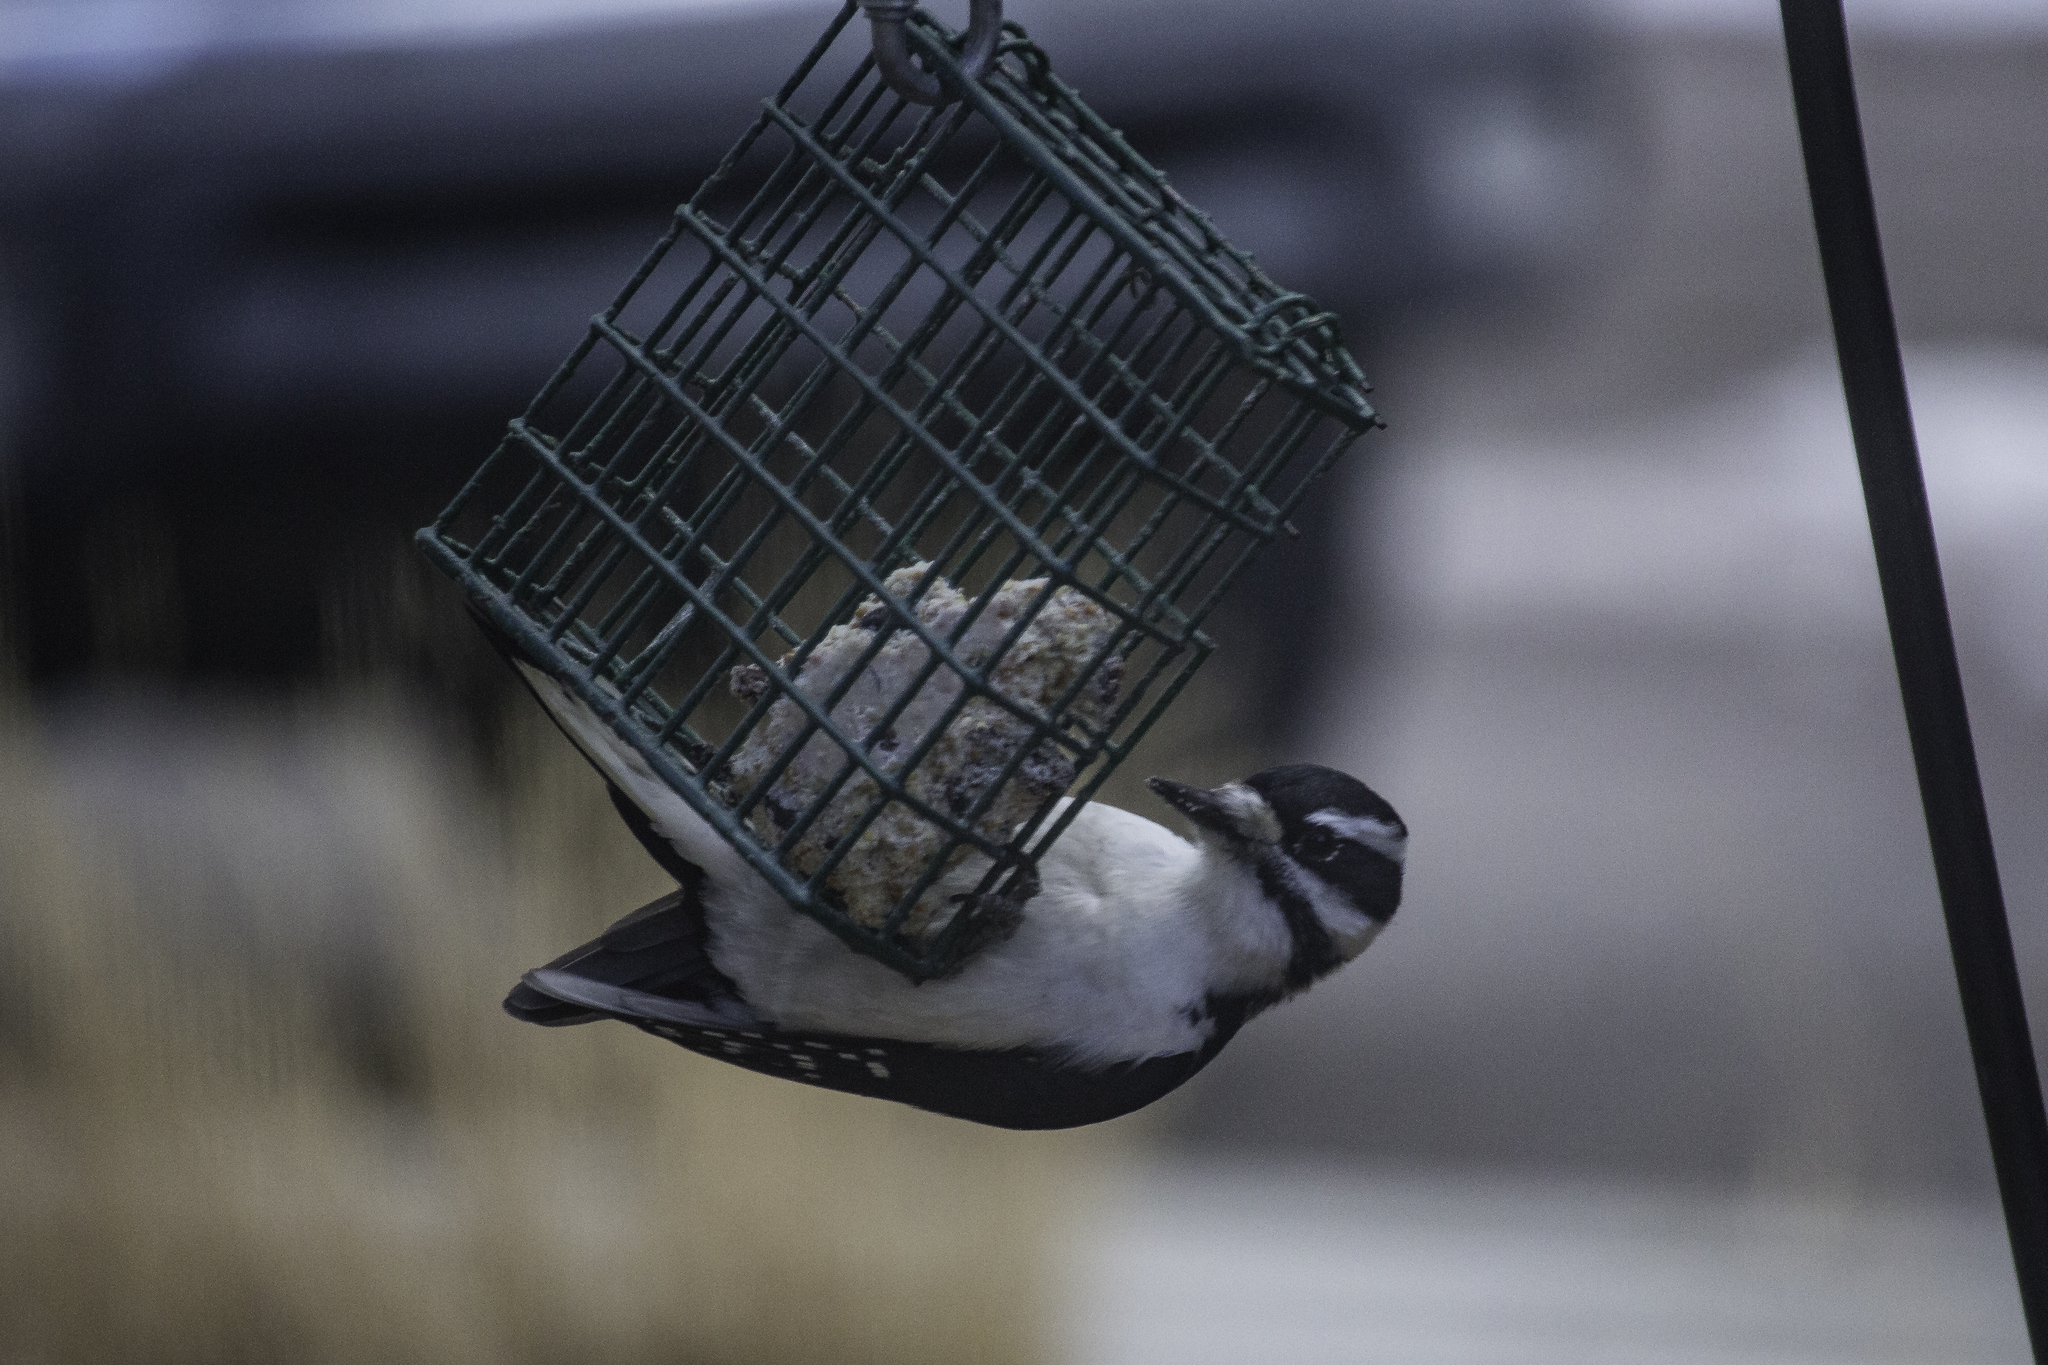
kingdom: Animalia
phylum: Chordata
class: Aves
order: Piciformes
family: Picidae
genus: Leuconotopicus
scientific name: Leuconotopicus villosus
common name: Hairy woodpecker
